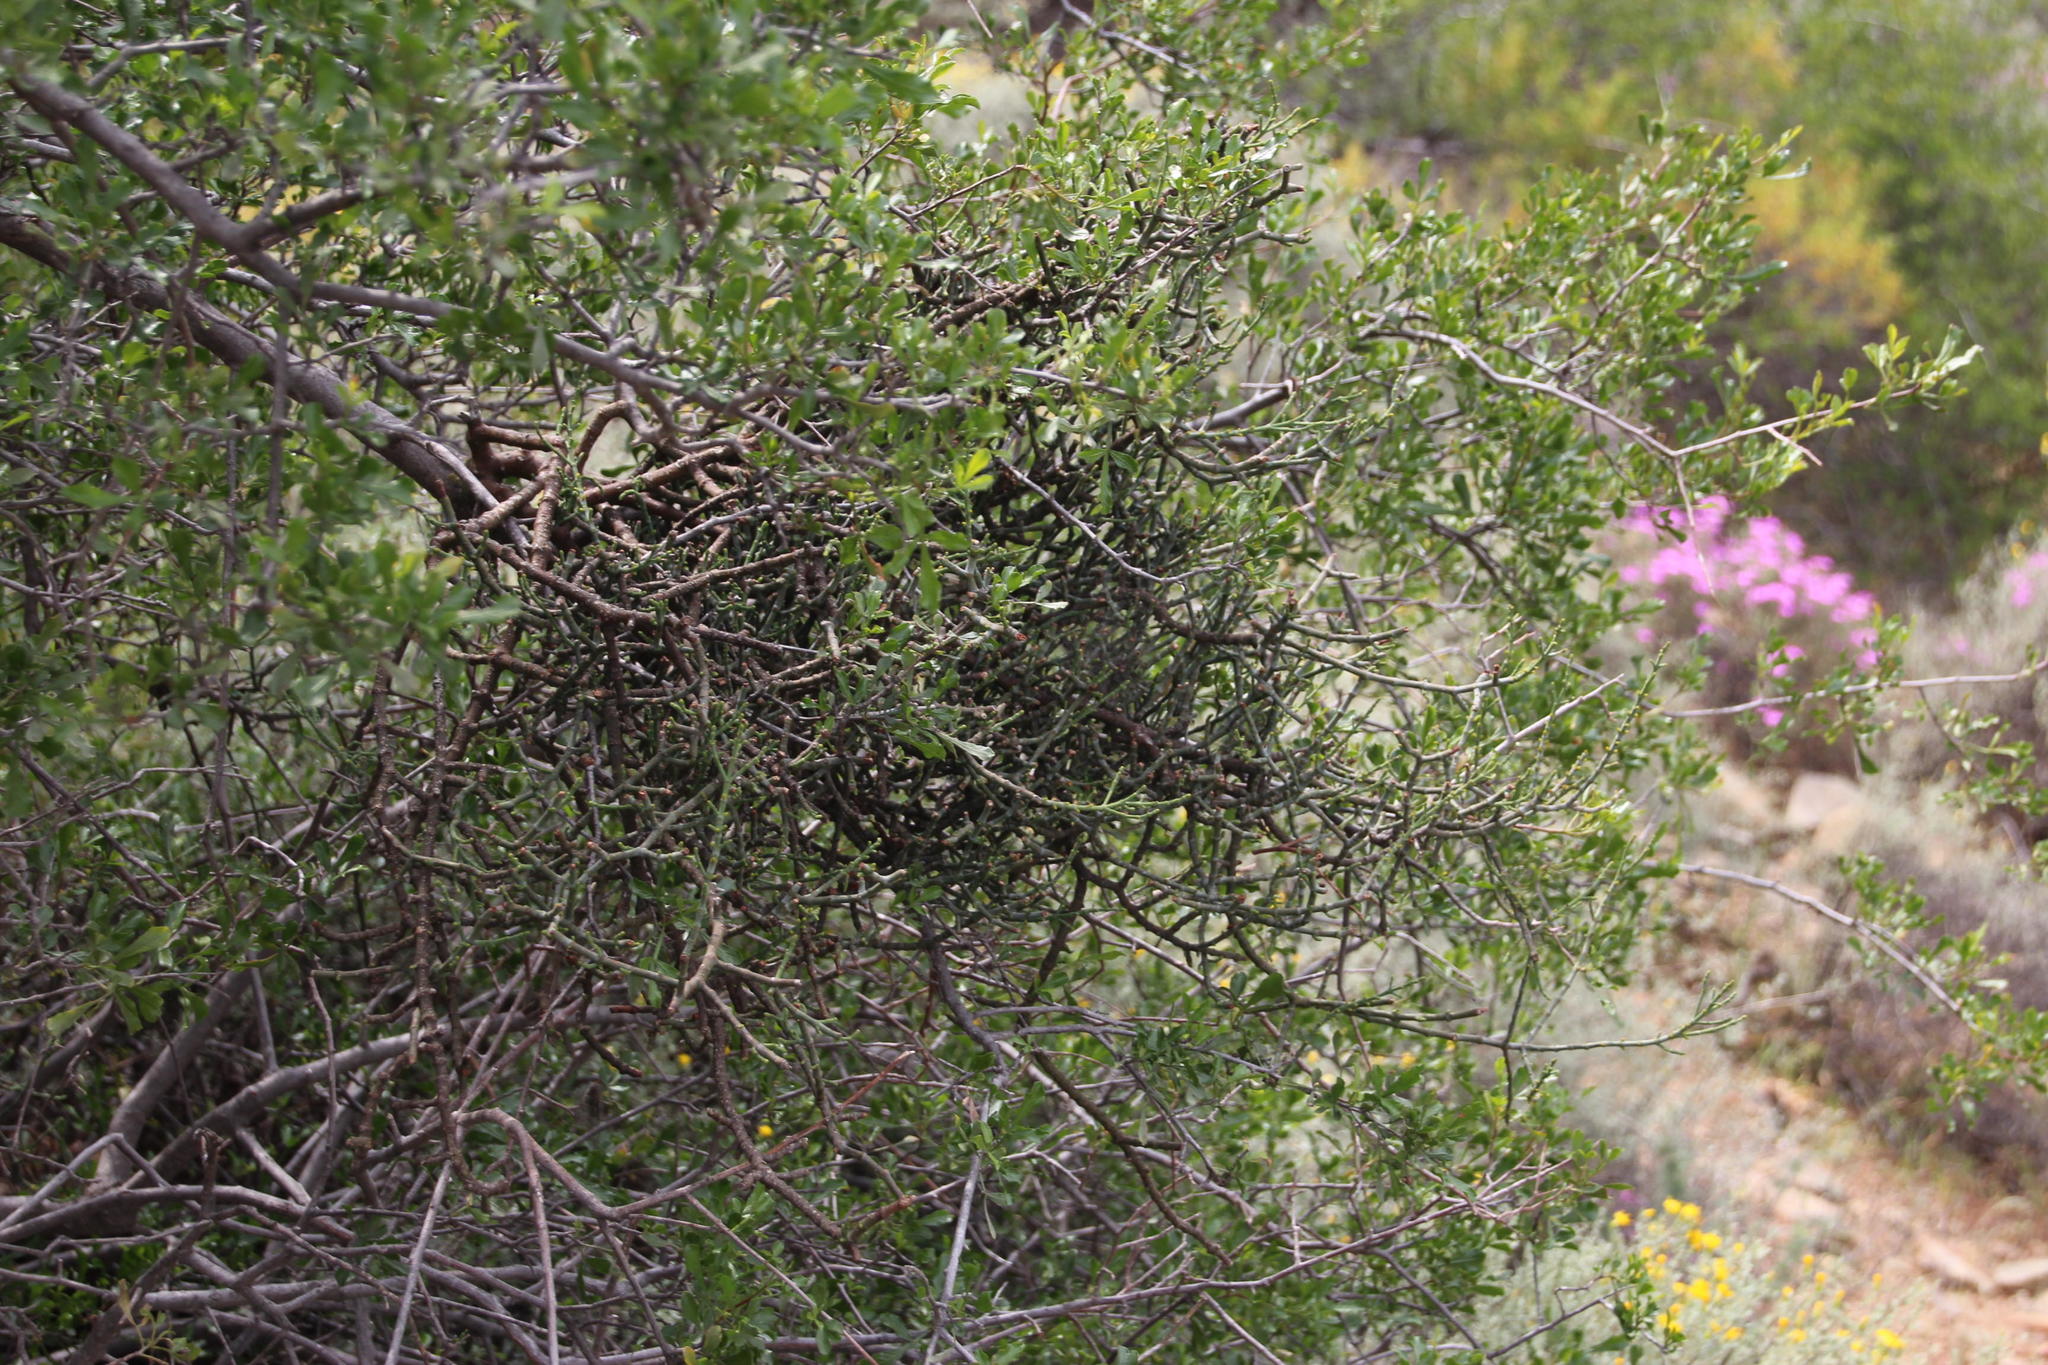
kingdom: Plantae
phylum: Tracheophyta
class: Magnoliopsida
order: Santalales
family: Viscaceae
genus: Viscum
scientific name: Viscum capense
